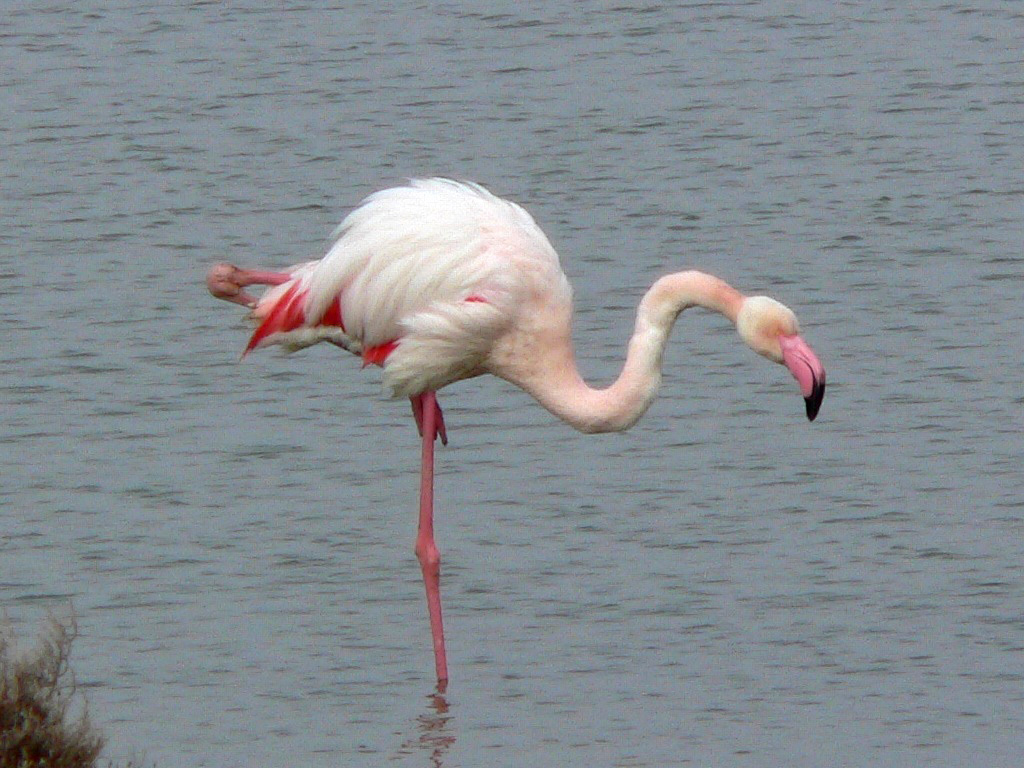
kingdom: Animalia
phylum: Chordata
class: Aves
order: Phoenicopteriformes
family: Phoenicopteridae
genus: Phoenicopterus
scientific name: Phoenicopterus roseus
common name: Greater flamingo
